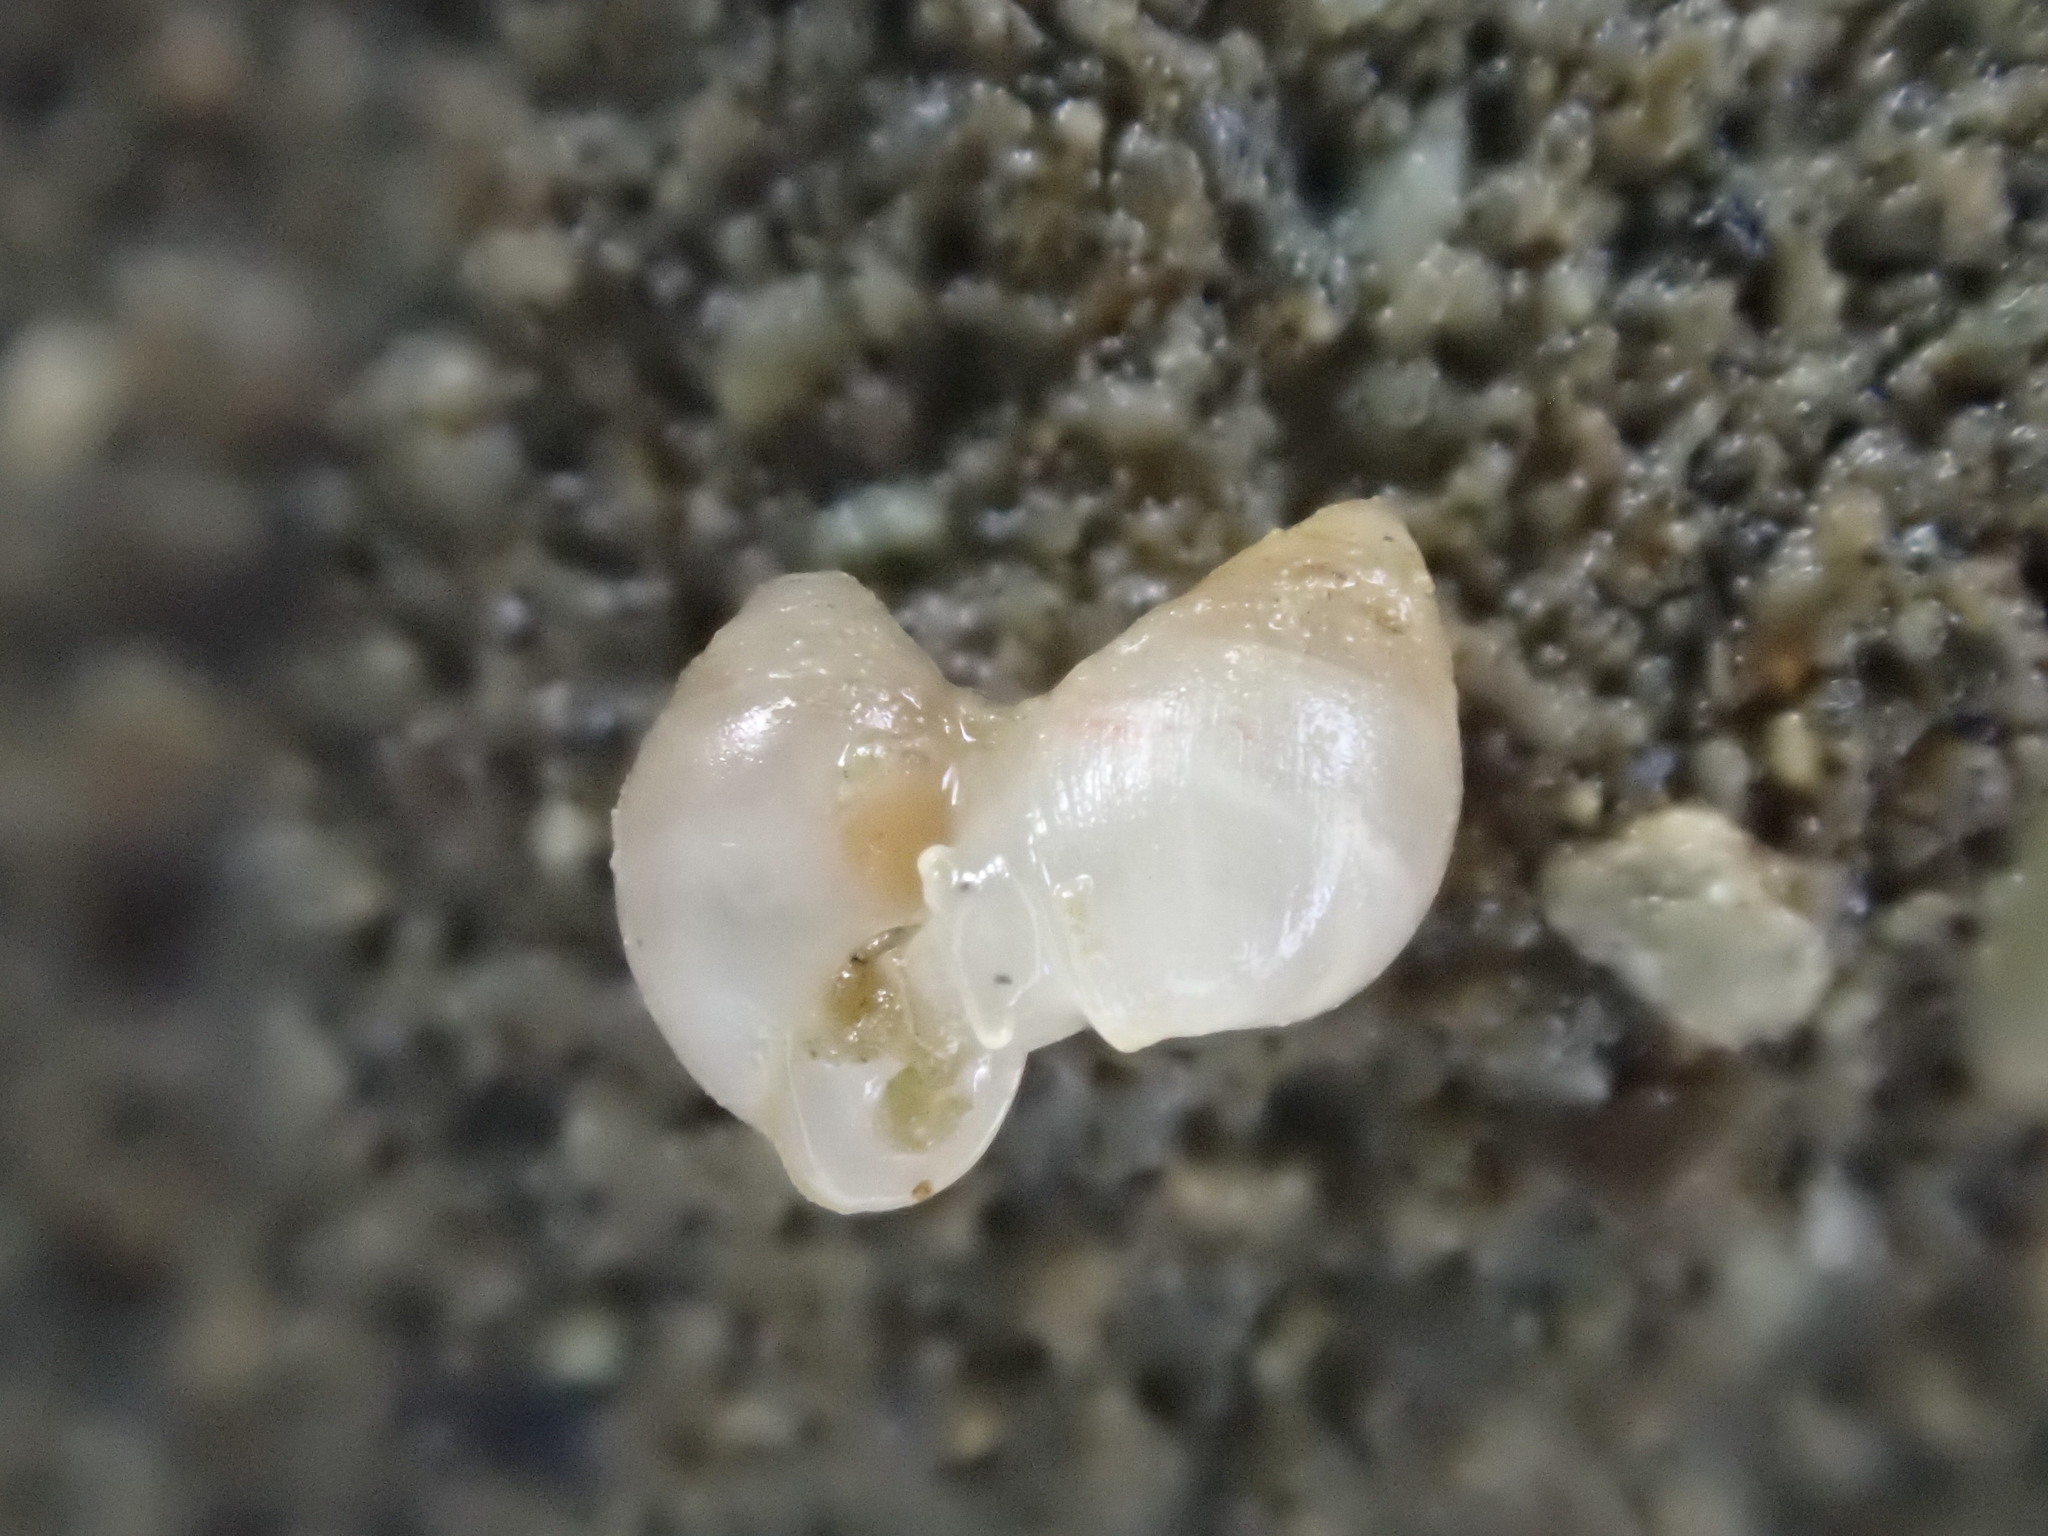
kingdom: Animalia
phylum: Mollusca
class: Gastropoda
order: Ellobiida
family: Ellobiidae
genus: Leuconopsis
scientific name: Leuconopsis obsoleta
